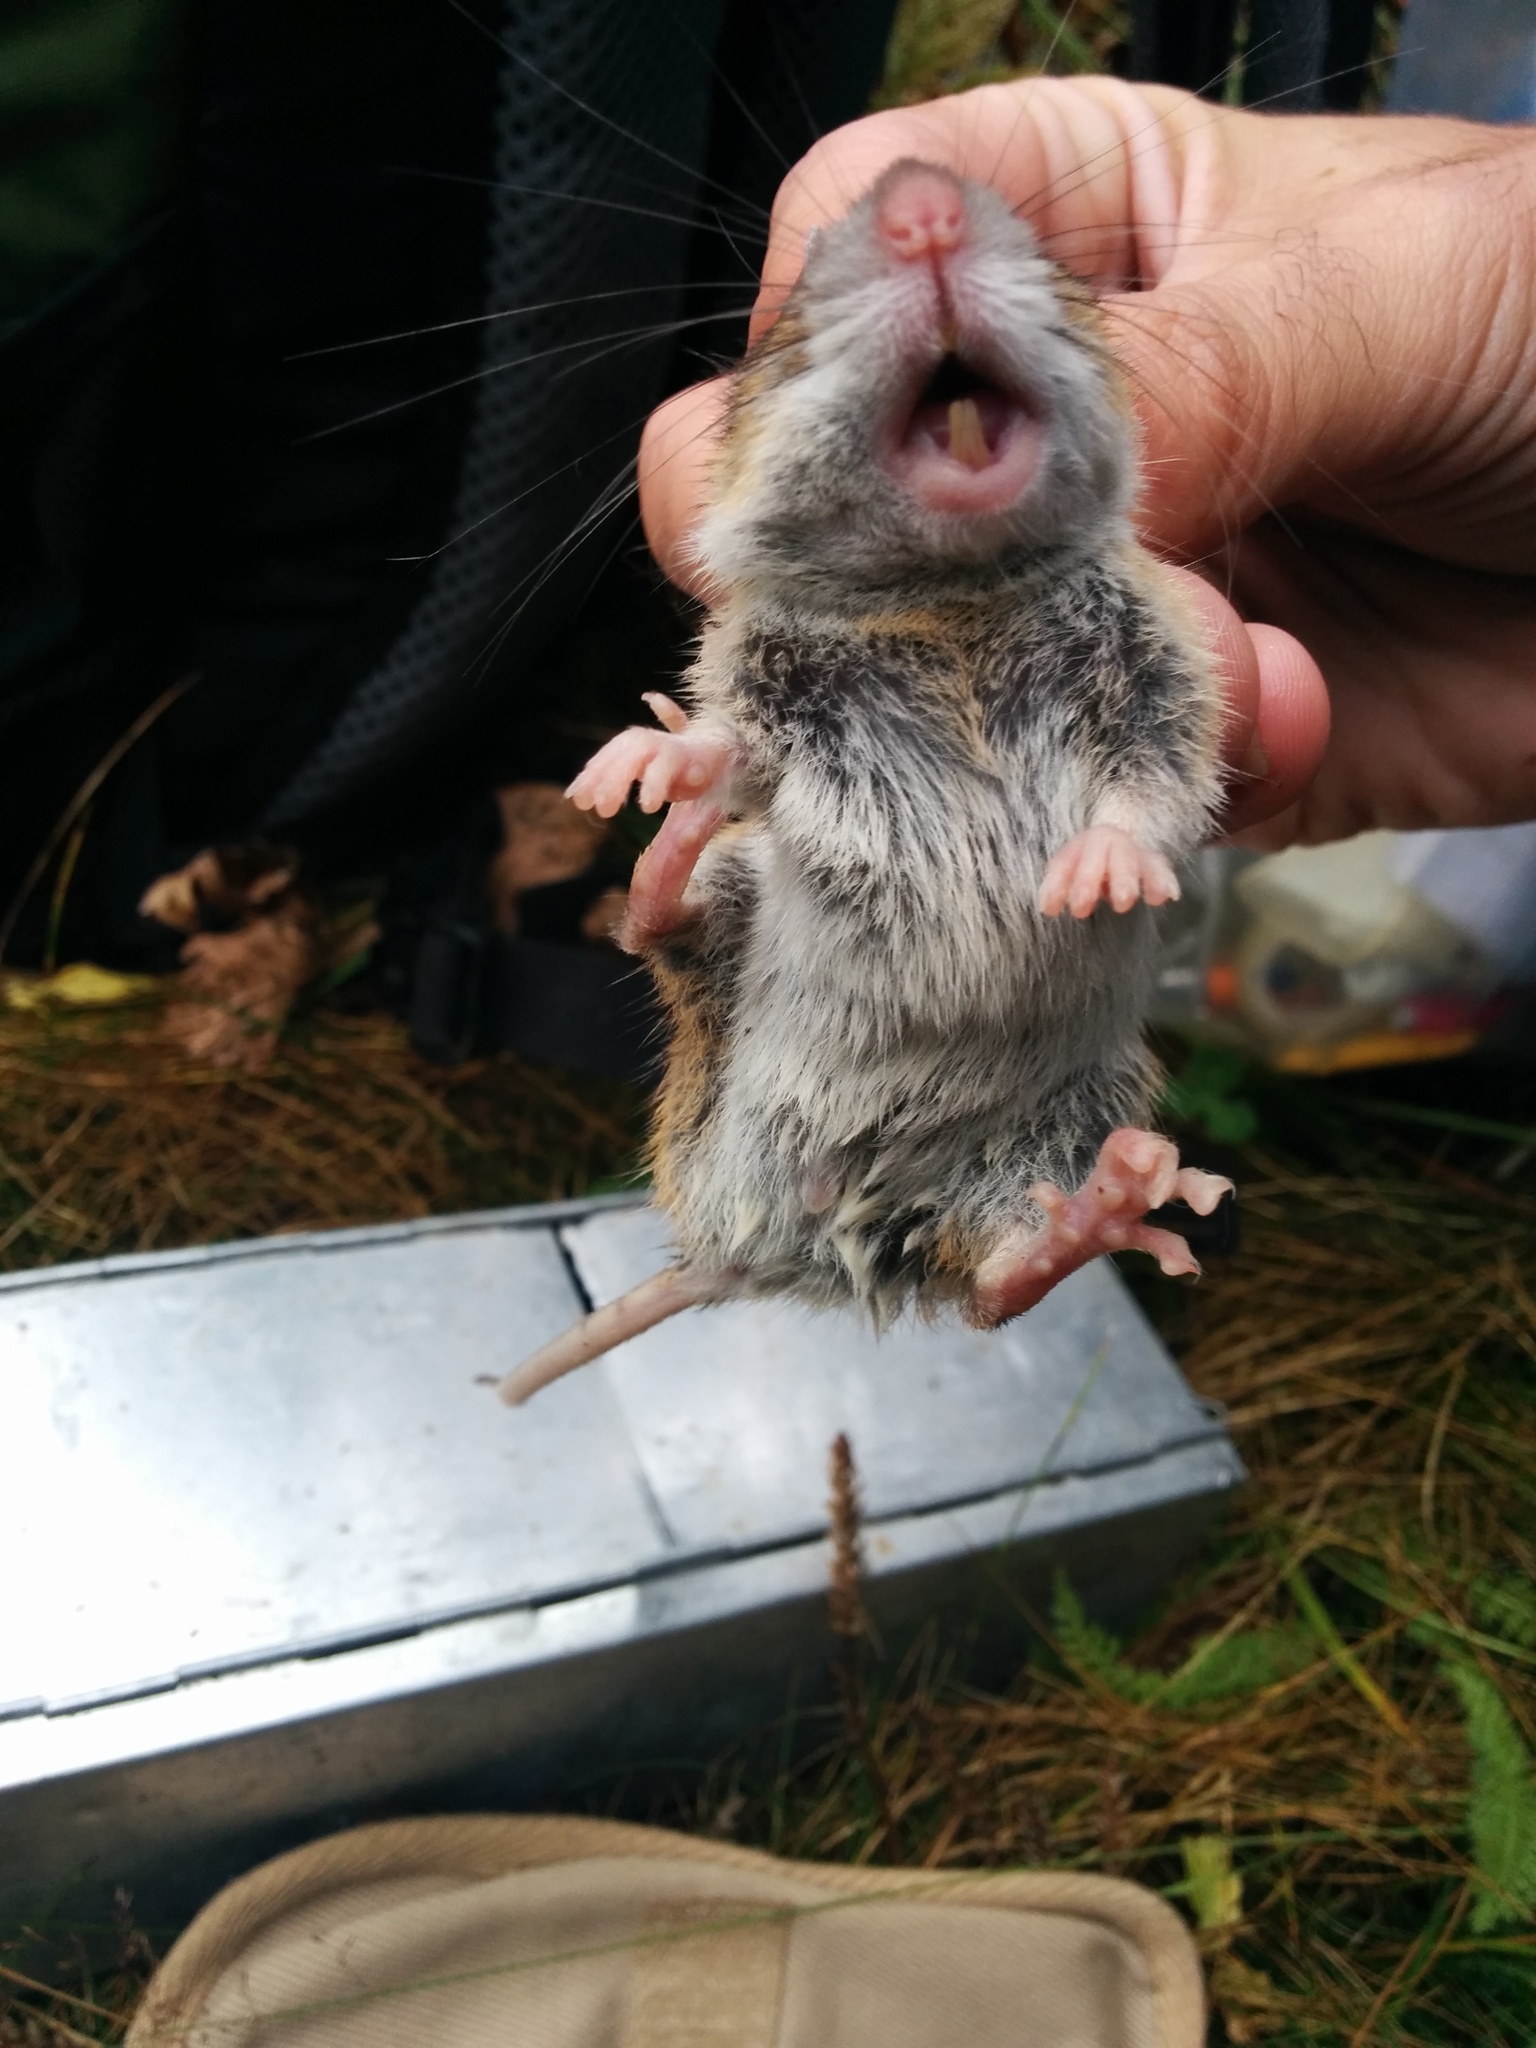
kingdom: Animalia
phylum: Chordata
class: Mammalia
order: Rodentia
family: Muridae
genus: Apodemus
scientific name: Apodemus alpicola
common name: Alpine field mouse
